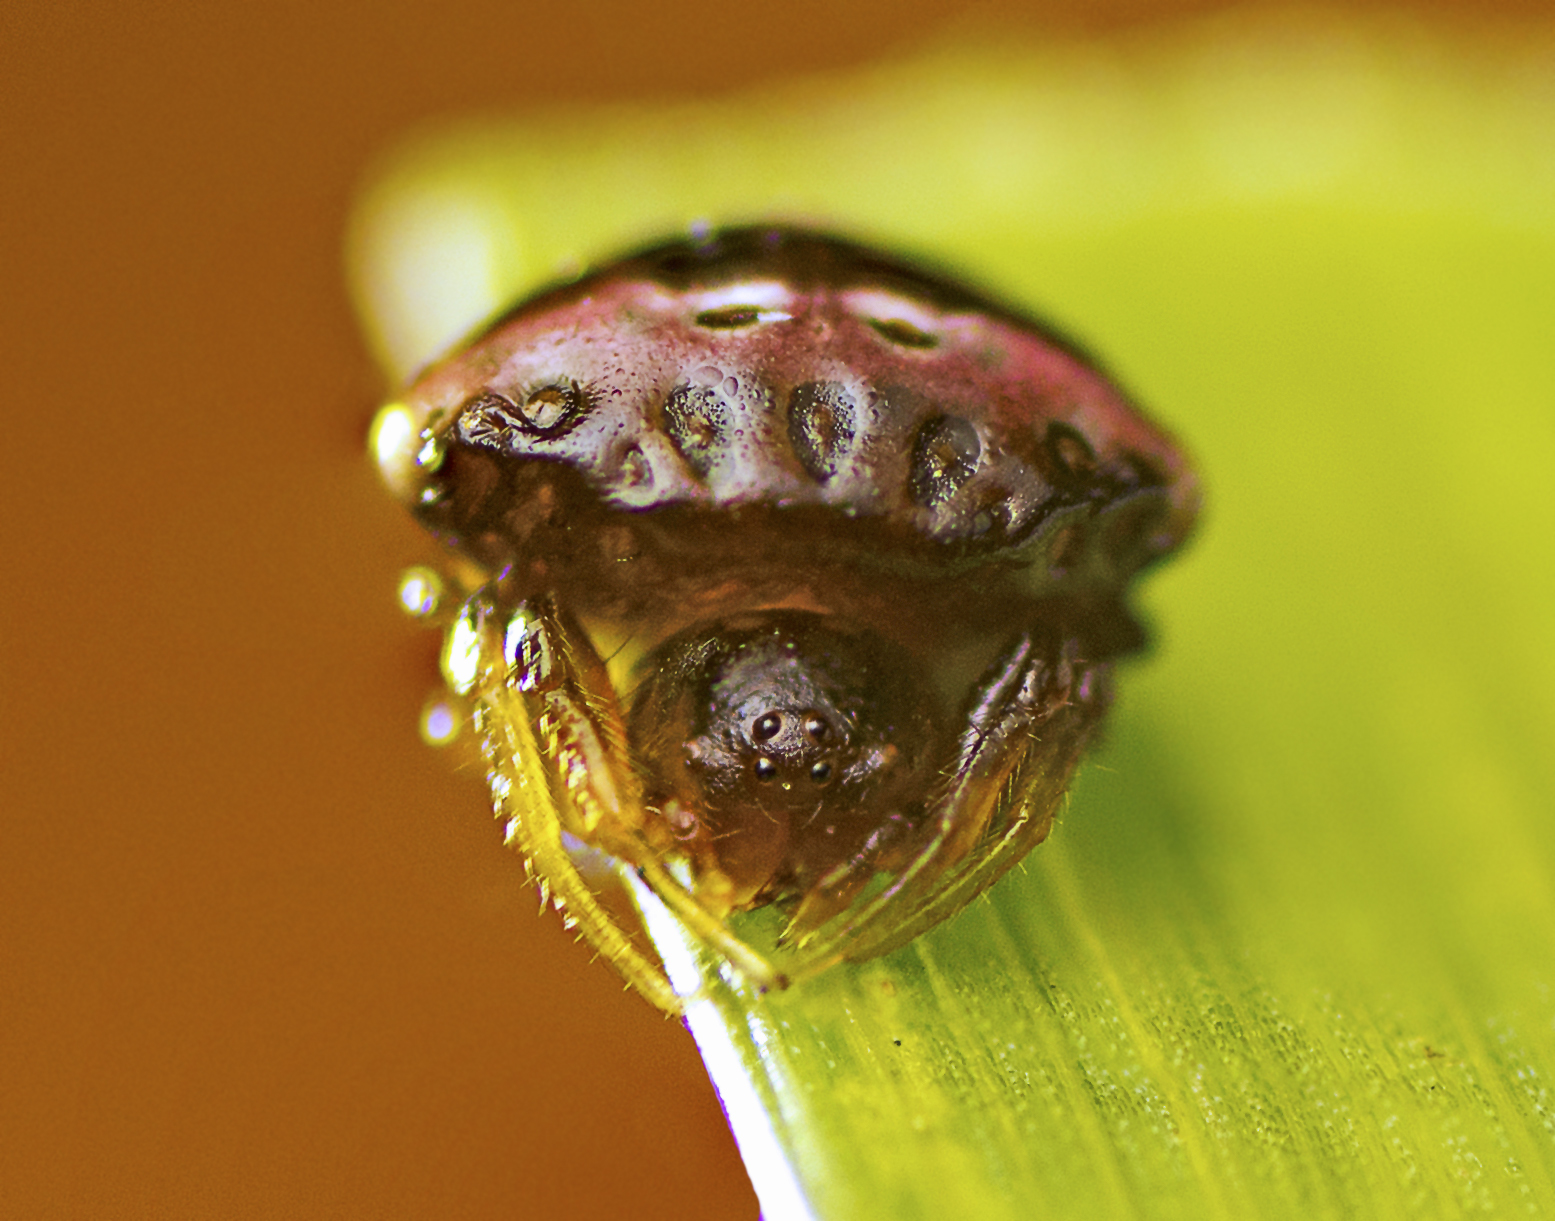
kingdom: Animalia
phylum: Arthropoda
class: Arachnida
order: Araneae
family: Araneidae
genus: Cyrtarachne
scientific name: Cyrtarachne tricolor
